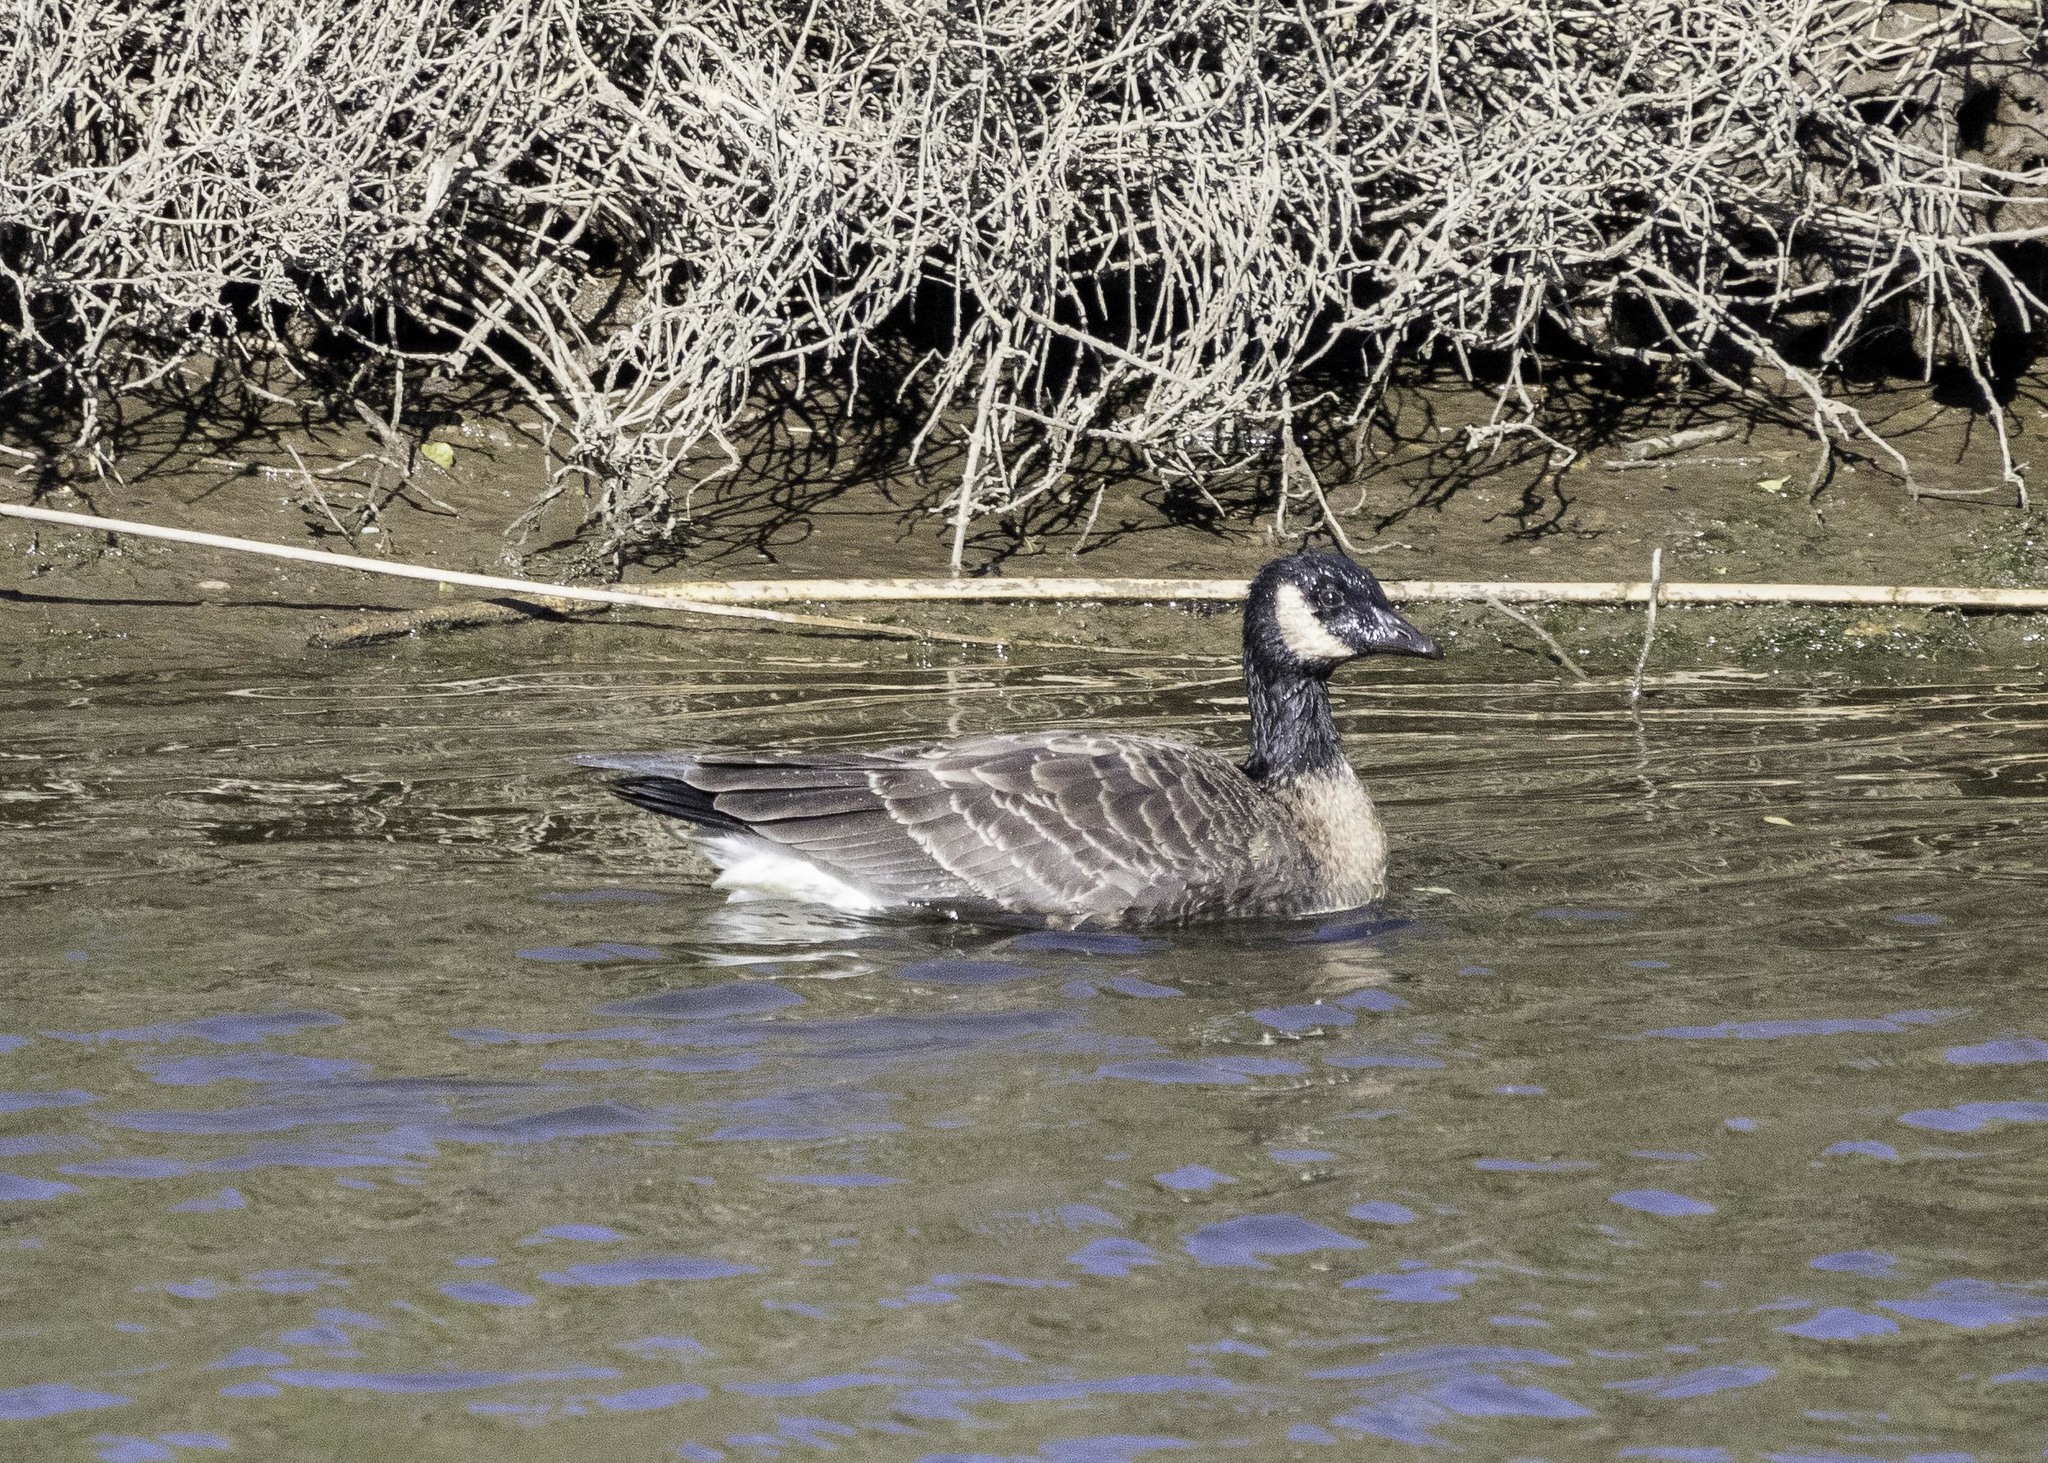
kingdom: Animalia
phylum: Chordata
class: Aves
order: Anseriformes
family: Anatidae
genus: Branta
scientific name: Branta hutchinsii
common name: Cackling goose
